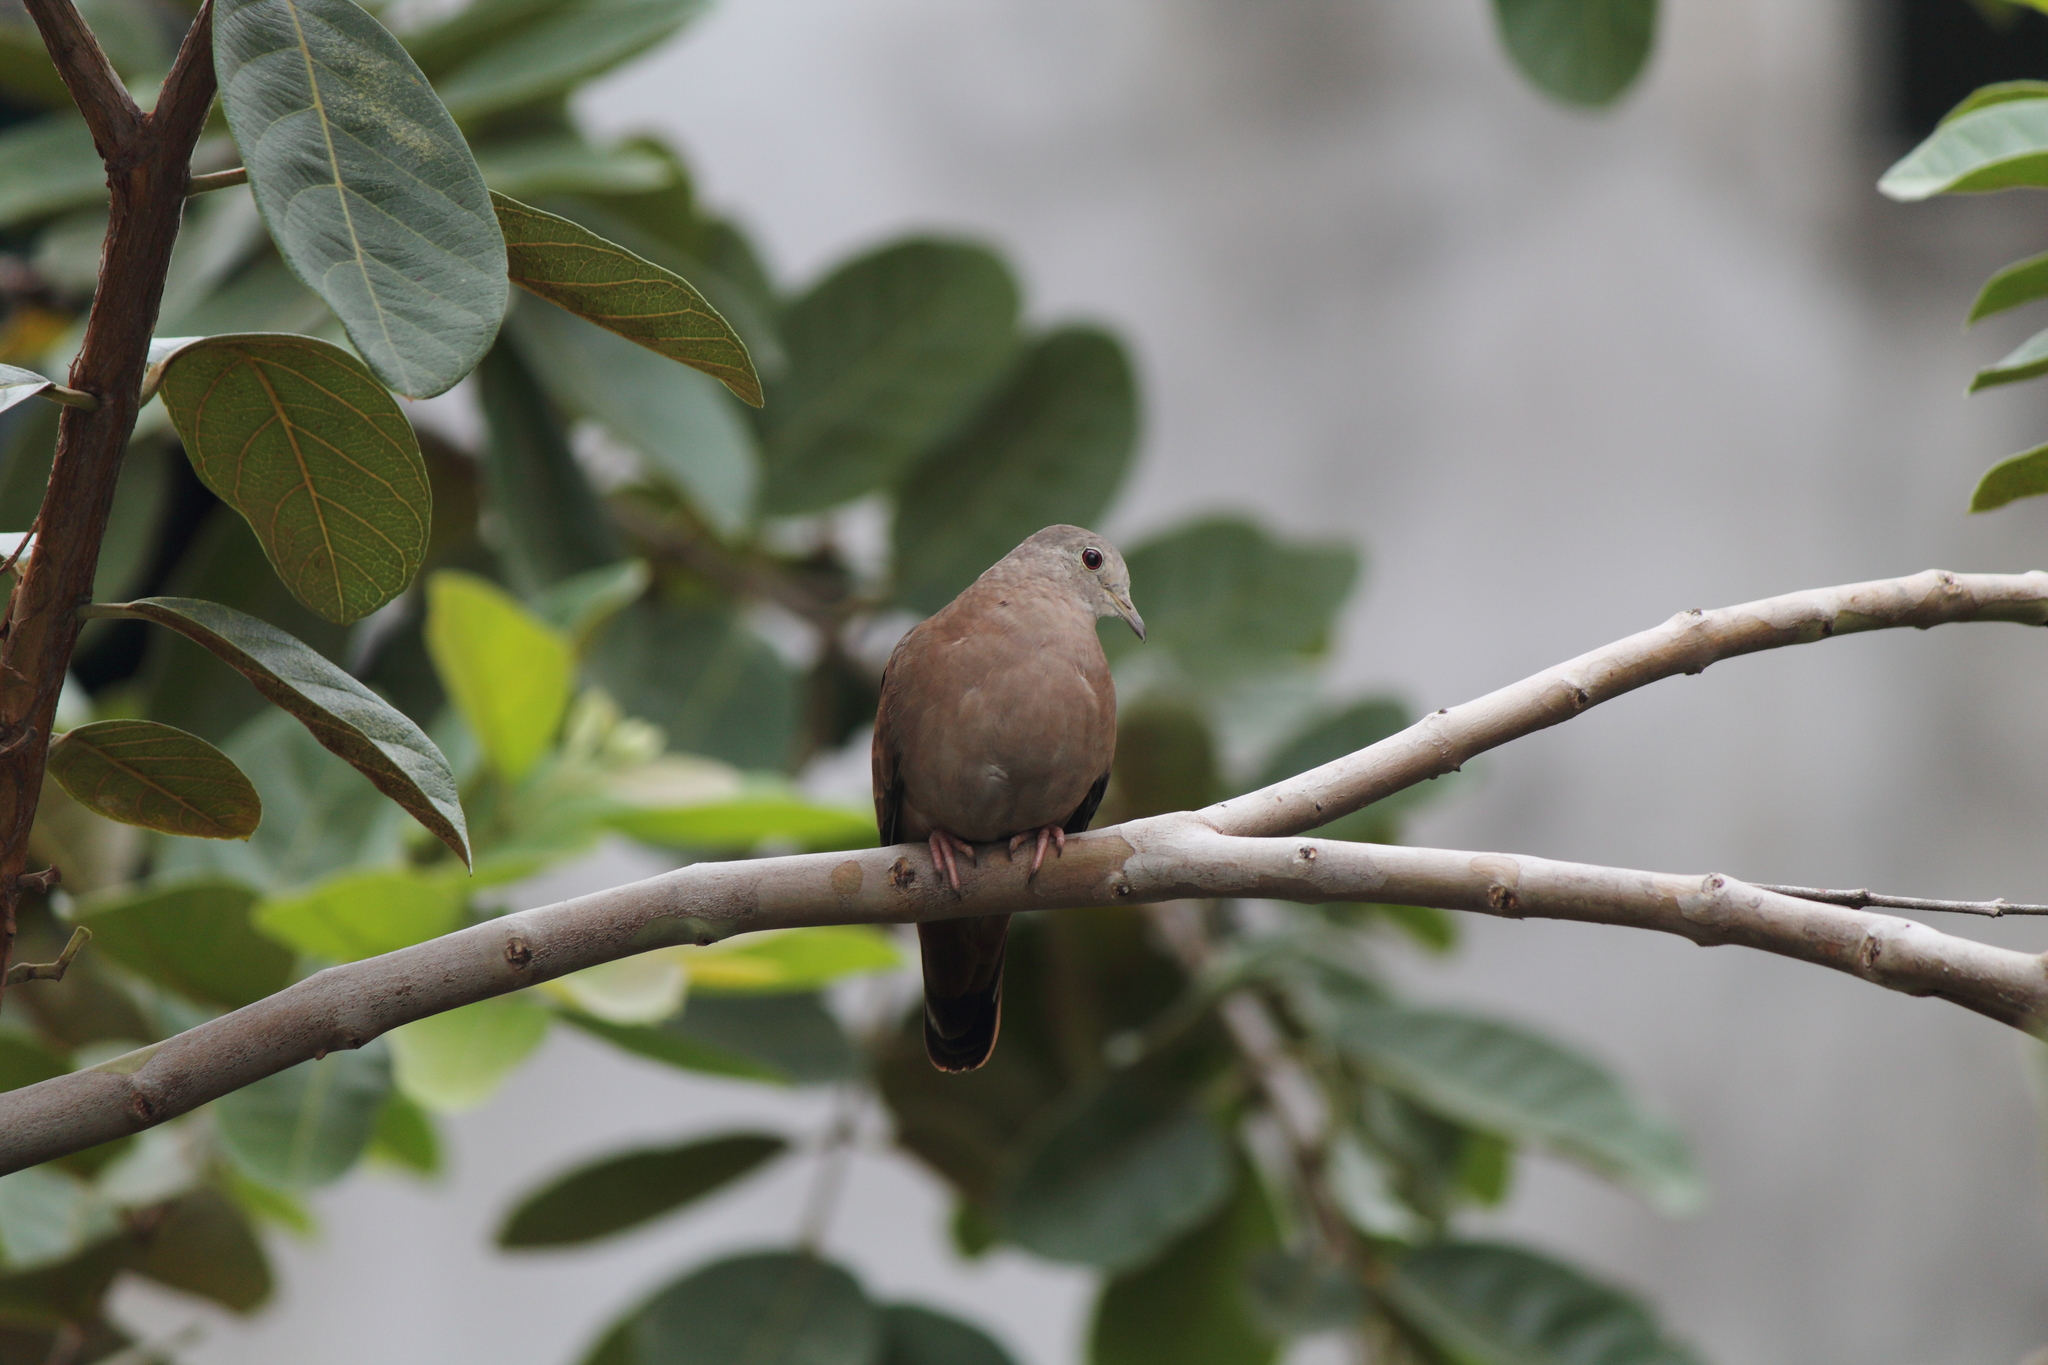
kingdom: Animalia
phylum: Chordata
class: Aves
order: Columbiformes
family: Columbidae
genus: Columbina
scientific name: Columbina talpacoti
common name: Ruddy ground dove
